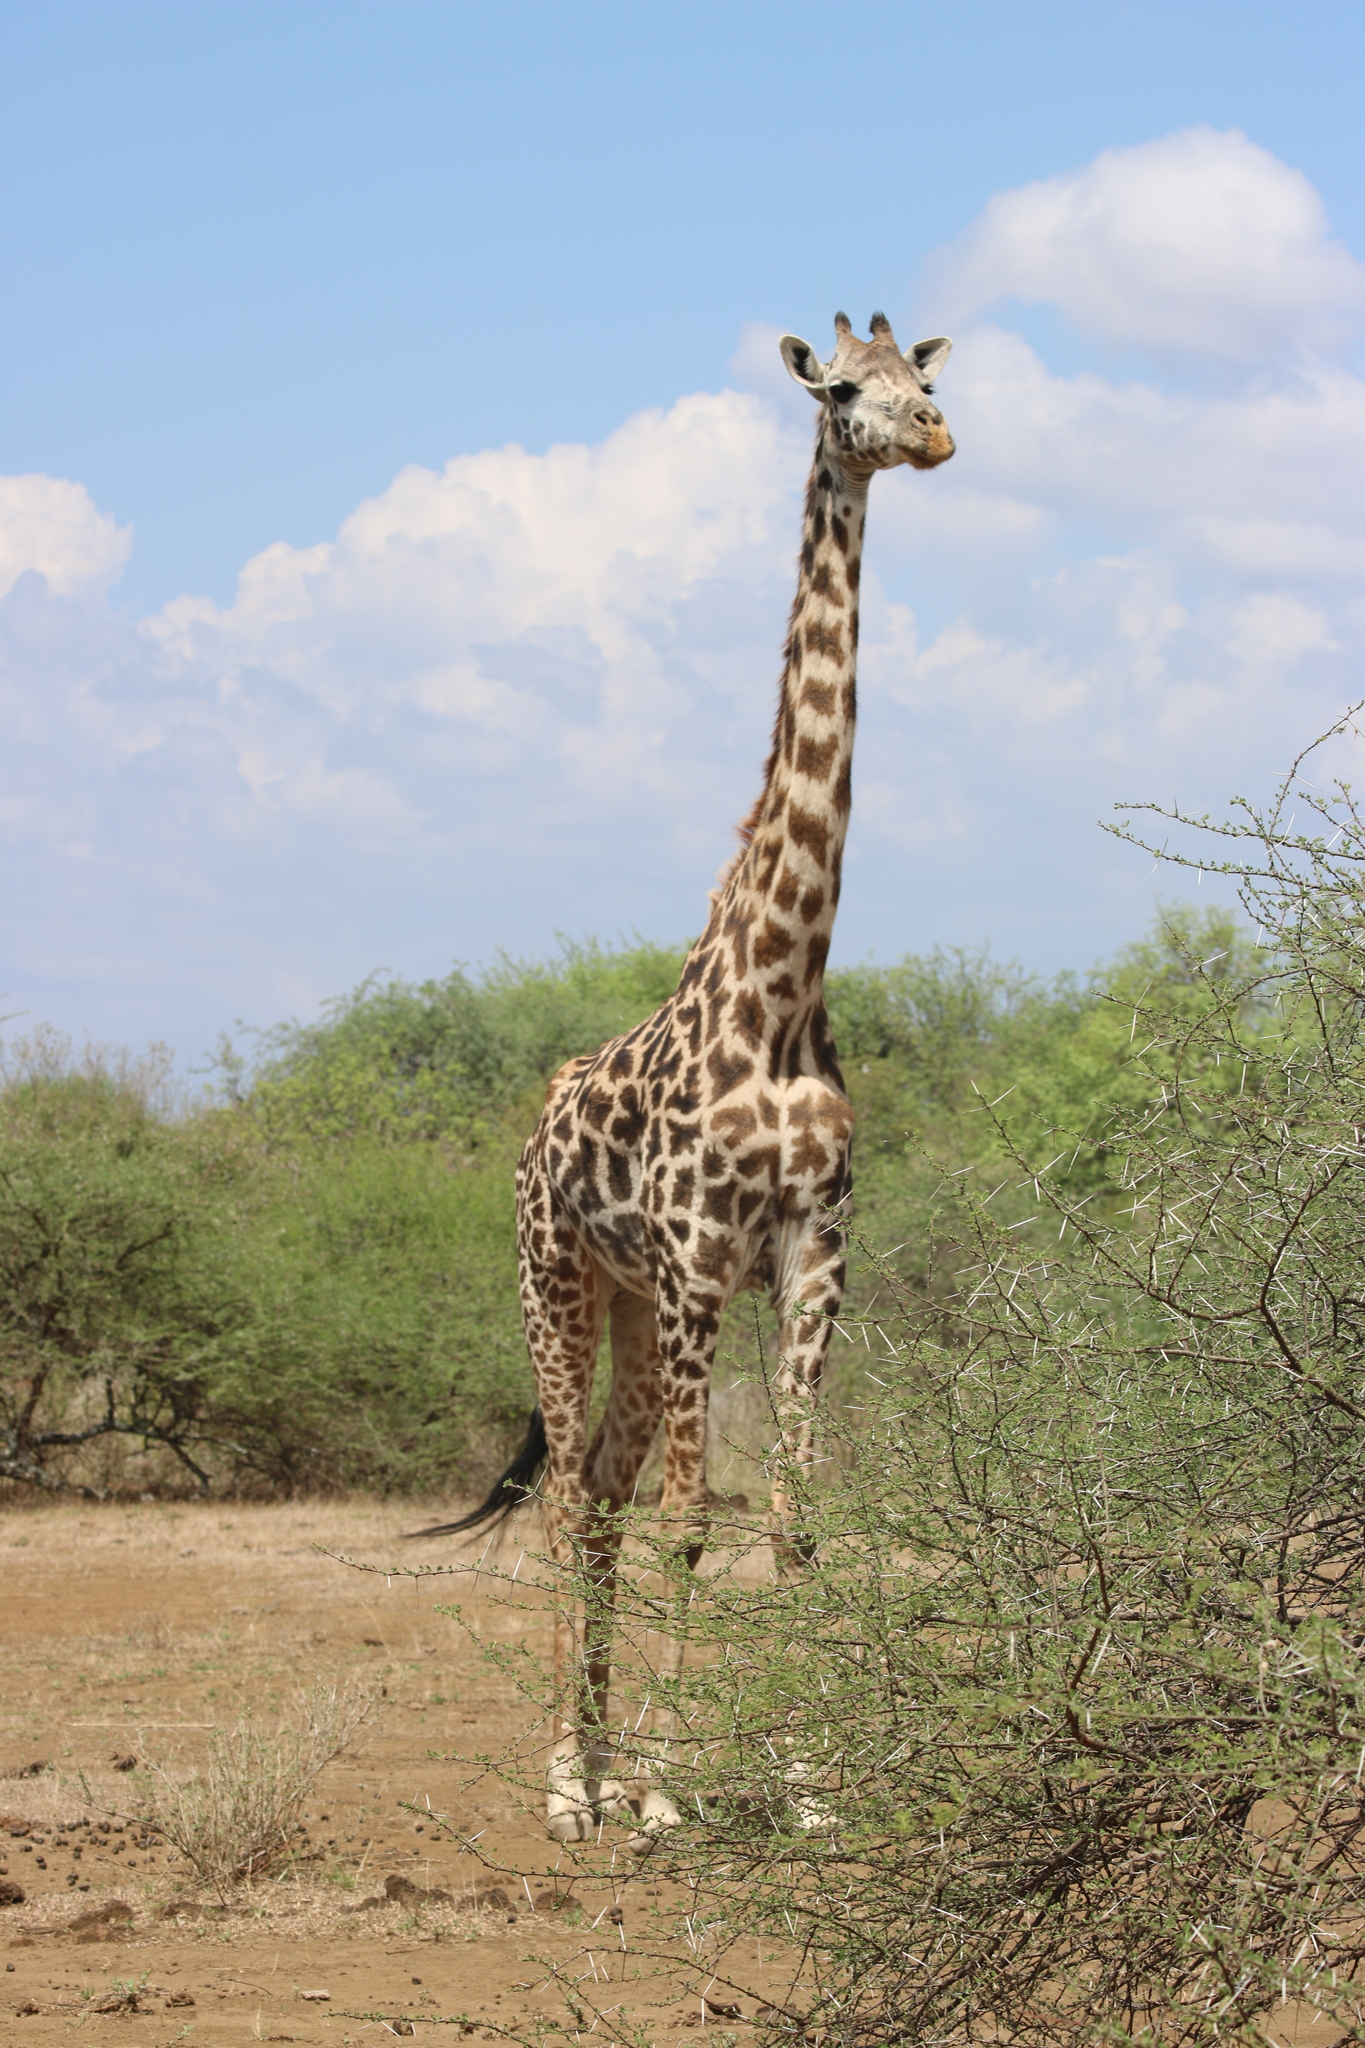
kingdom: Animalia
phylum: Chordata
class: Mammalia
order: Artiodactyla
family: Giraffidae
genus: Giraffa
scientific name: Giraffa tippelskirchi
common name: Masai giraffe
